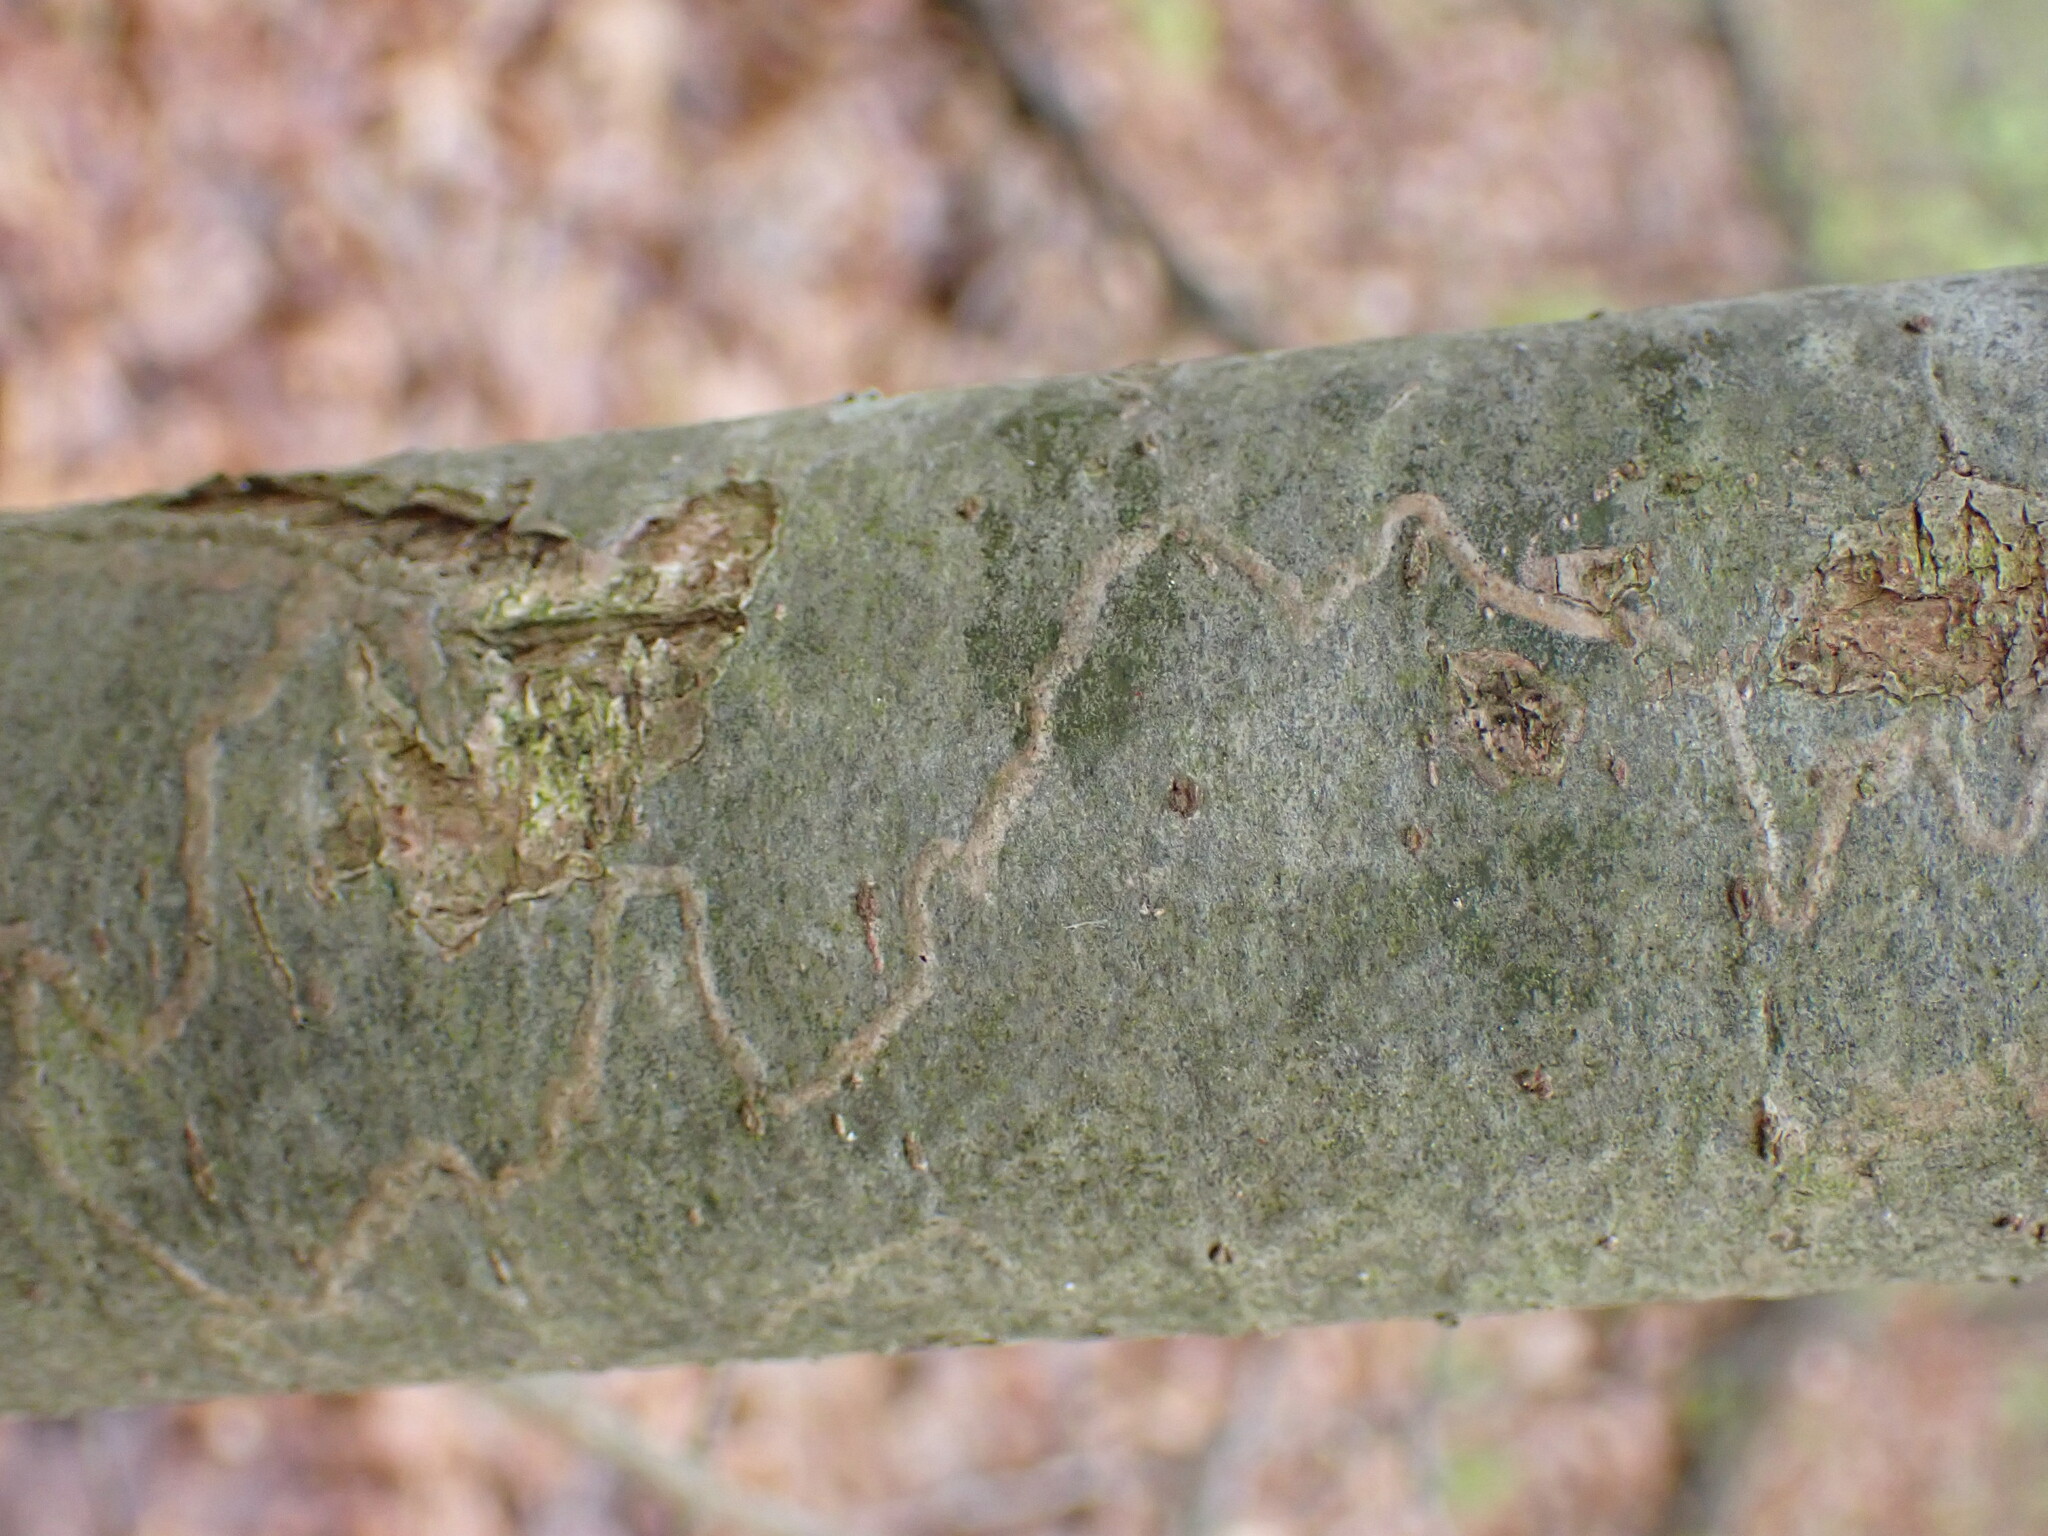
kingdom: Animalia
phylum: Arthropoda
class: Insecta
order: Lepidoptera
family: Gracillariidae
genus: Marmara
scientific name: Marmara fasciella
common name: White pine barkminer moth
